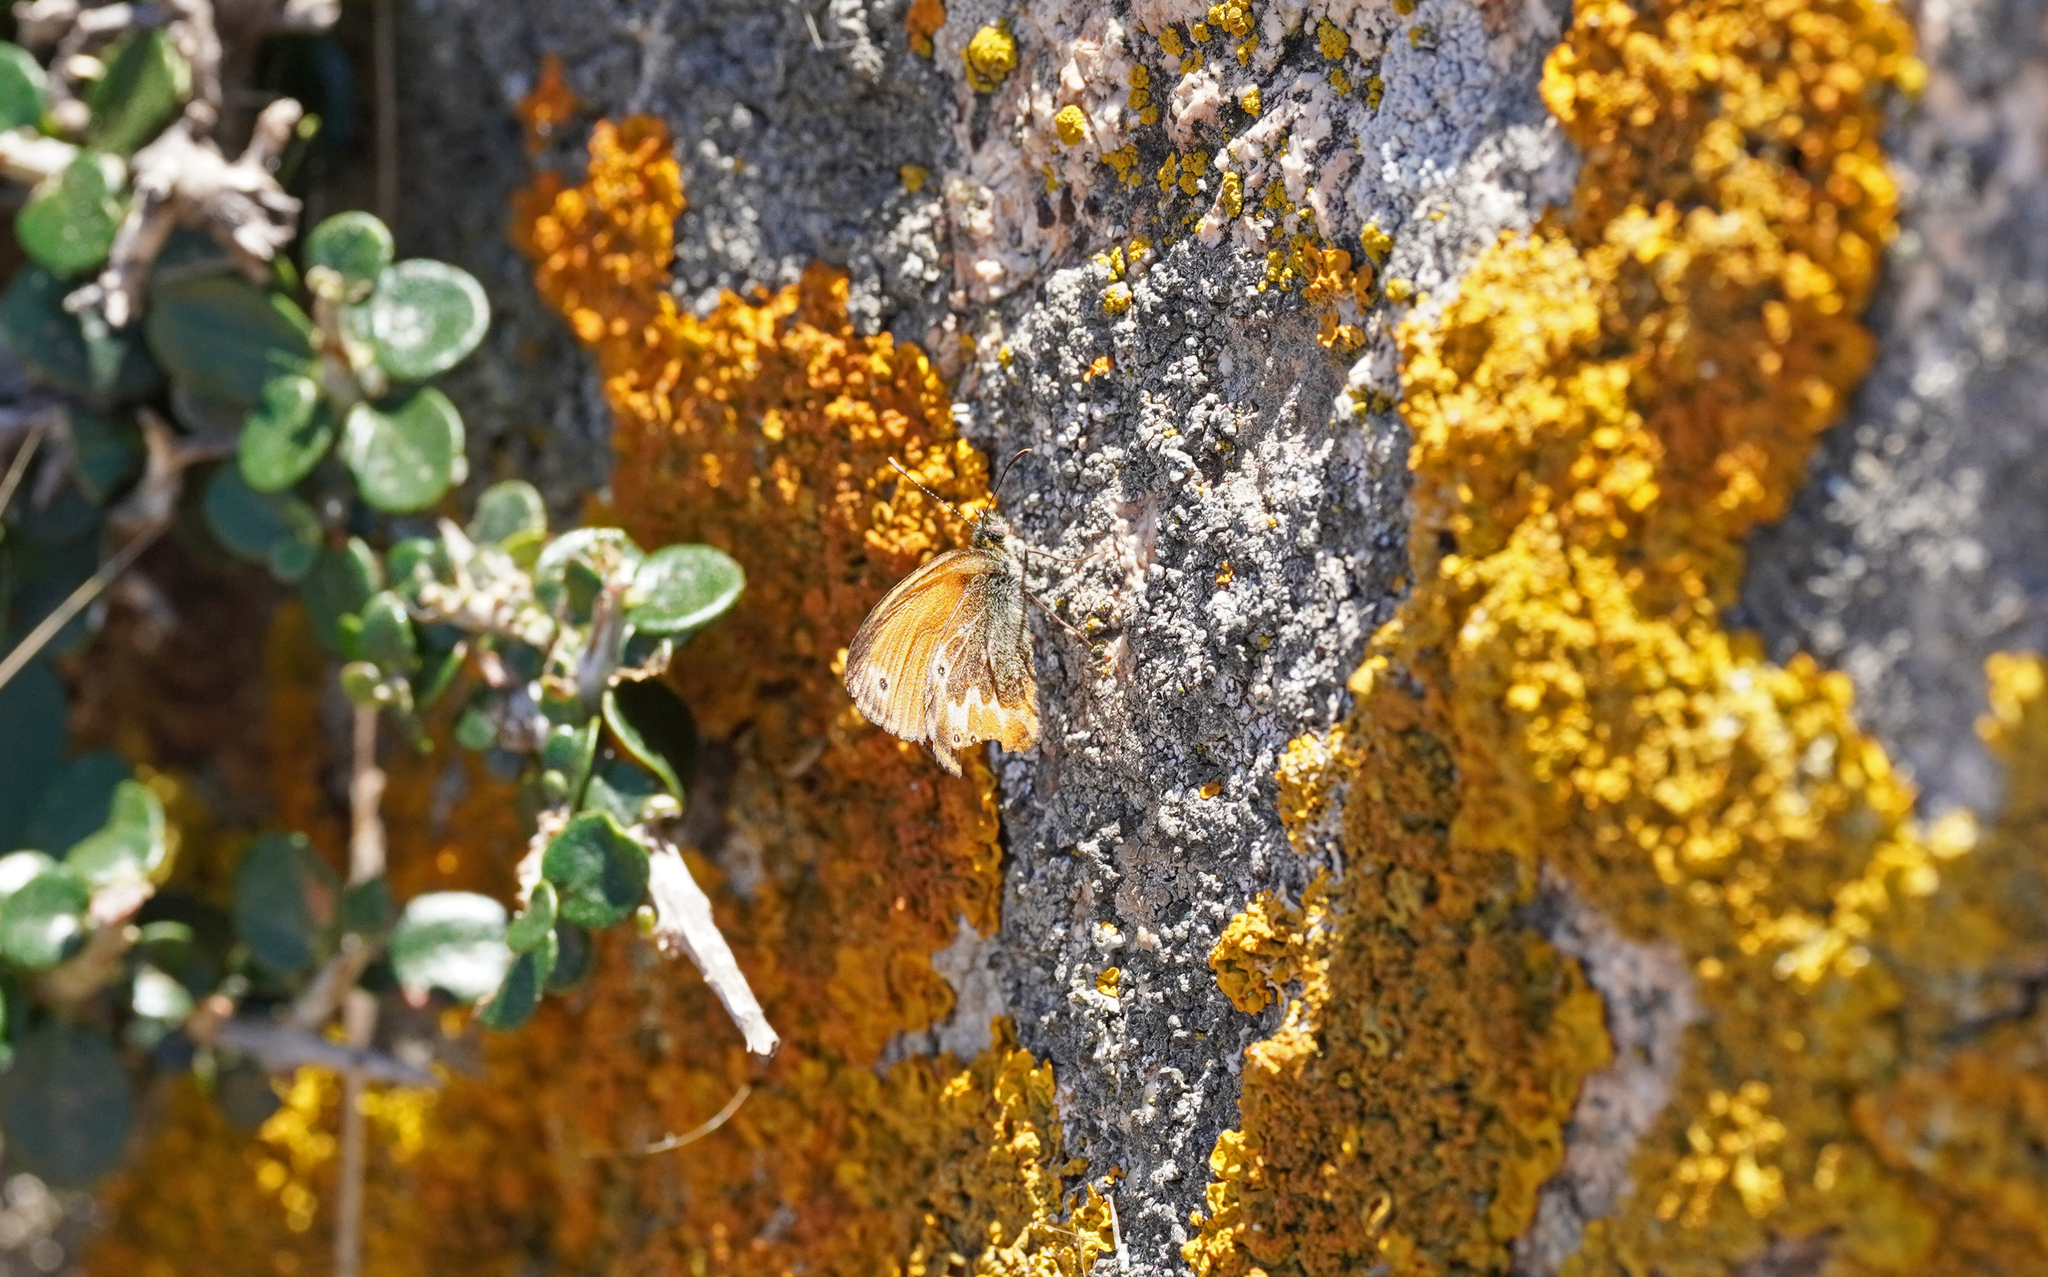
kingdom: Animalia
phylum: Arthropoda
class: Insecta
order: Lepidoptera
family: Nymphalidae
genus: Coenonympha
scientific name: Coenonympha corinna
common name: Corsican heath
